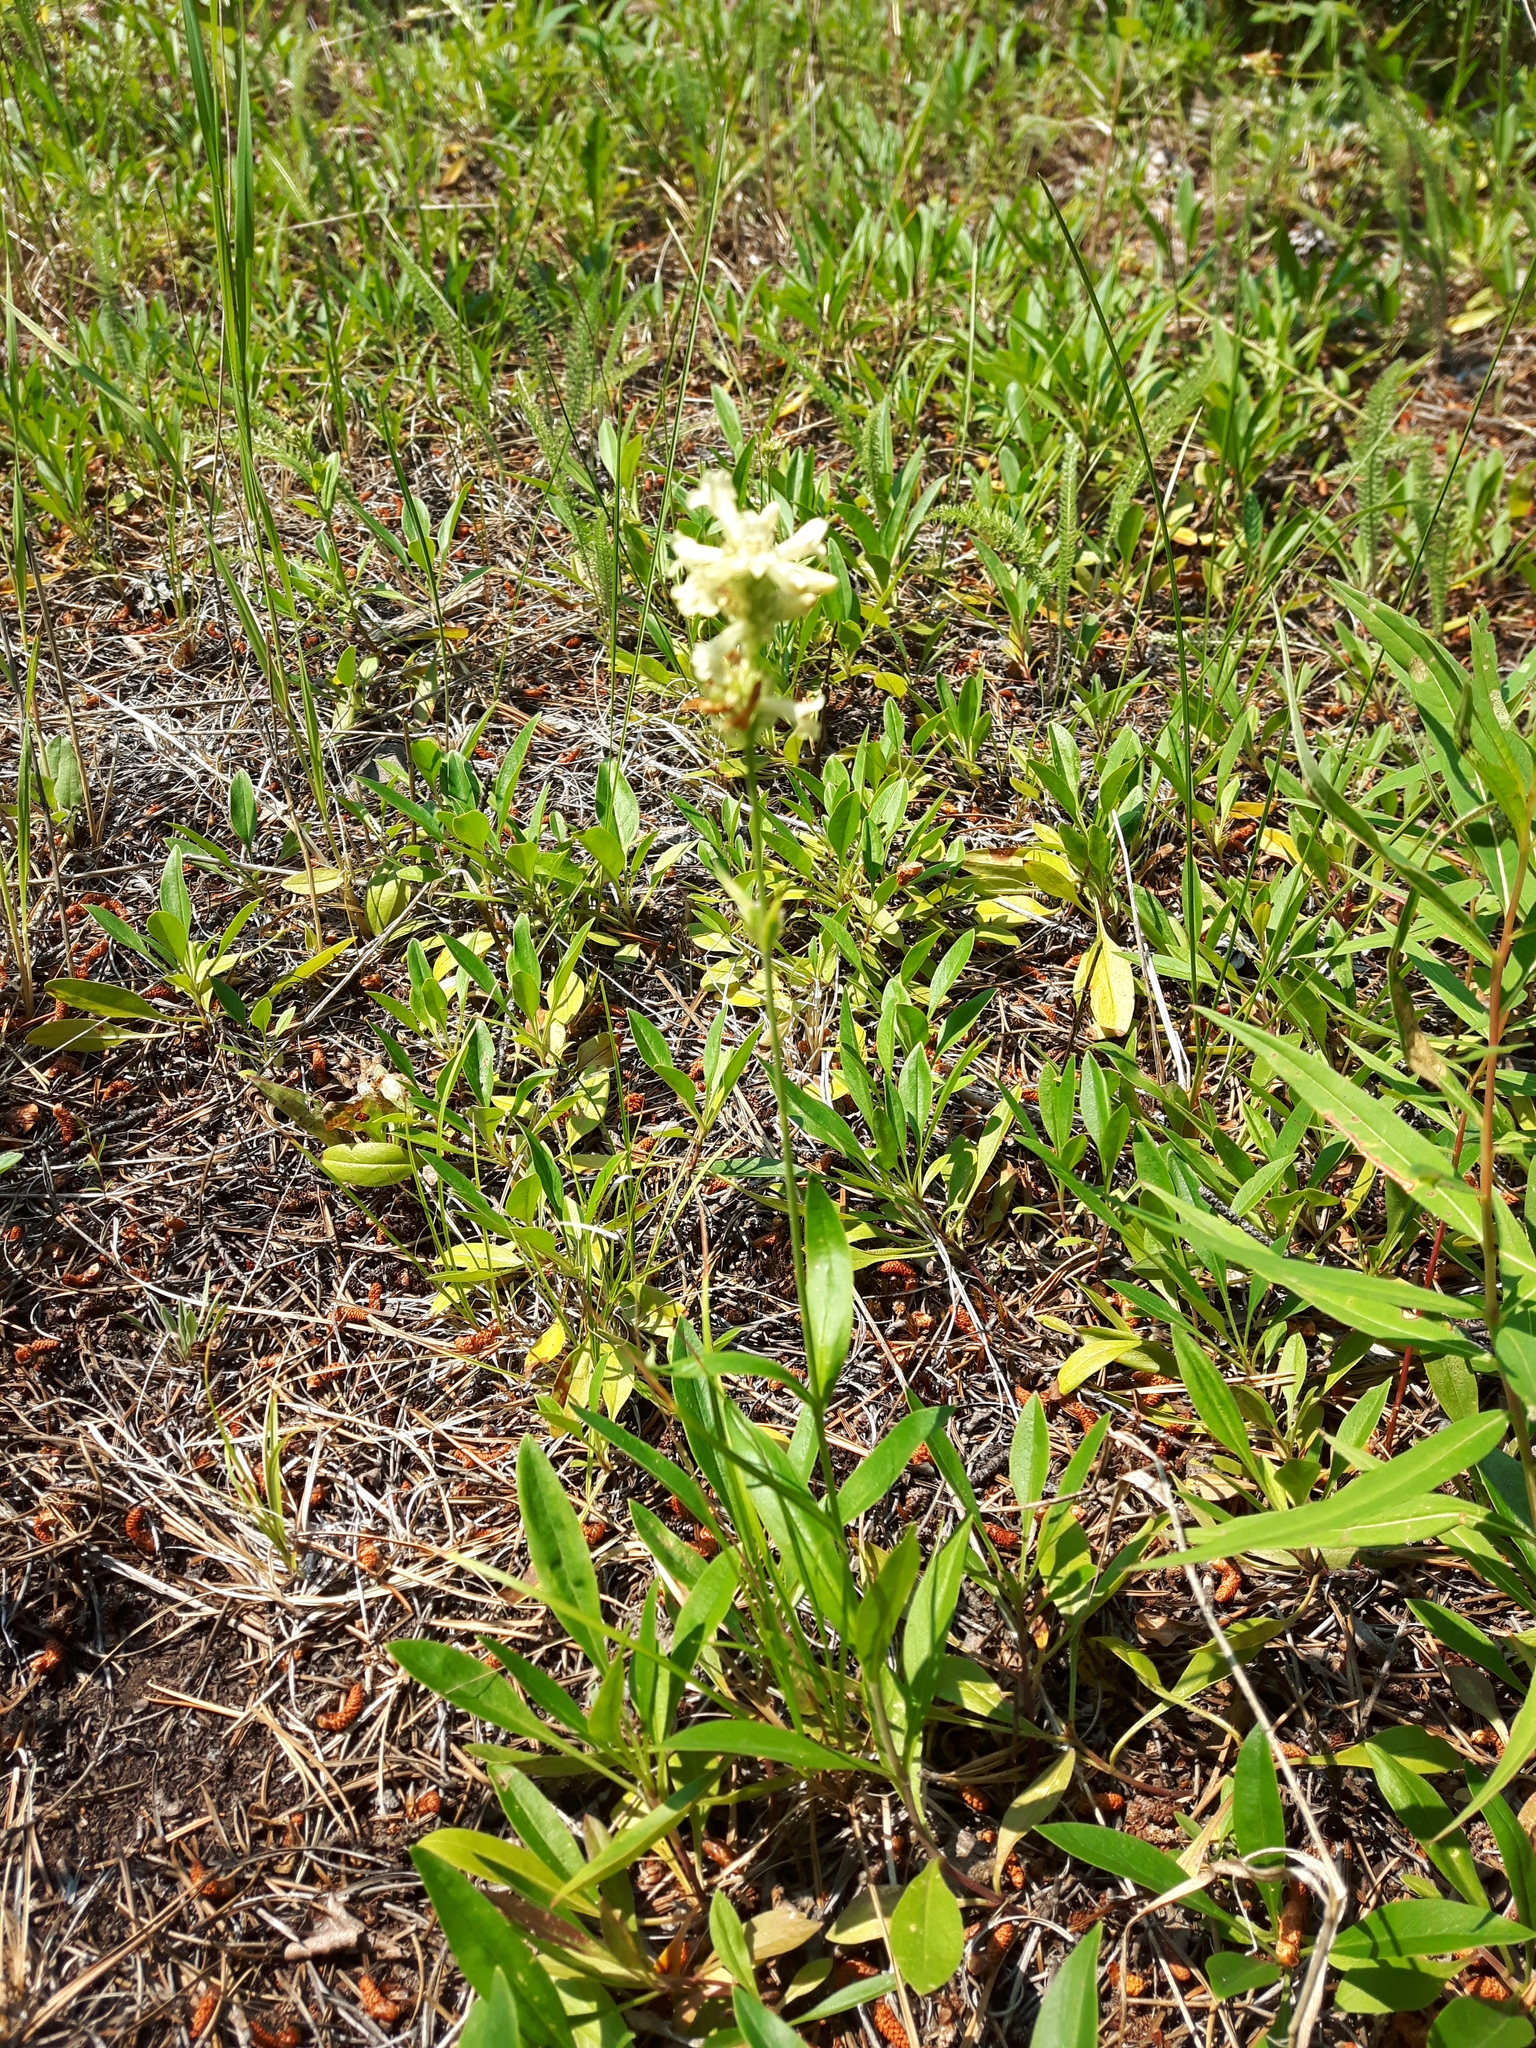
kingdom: Plantae
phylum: Tracheophyta
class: Magnoliopsida
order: Lamiales
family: Plantaginaceae
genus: Penstemon
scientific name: Penstemon confertus
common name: Lesser yellow beardtongue
